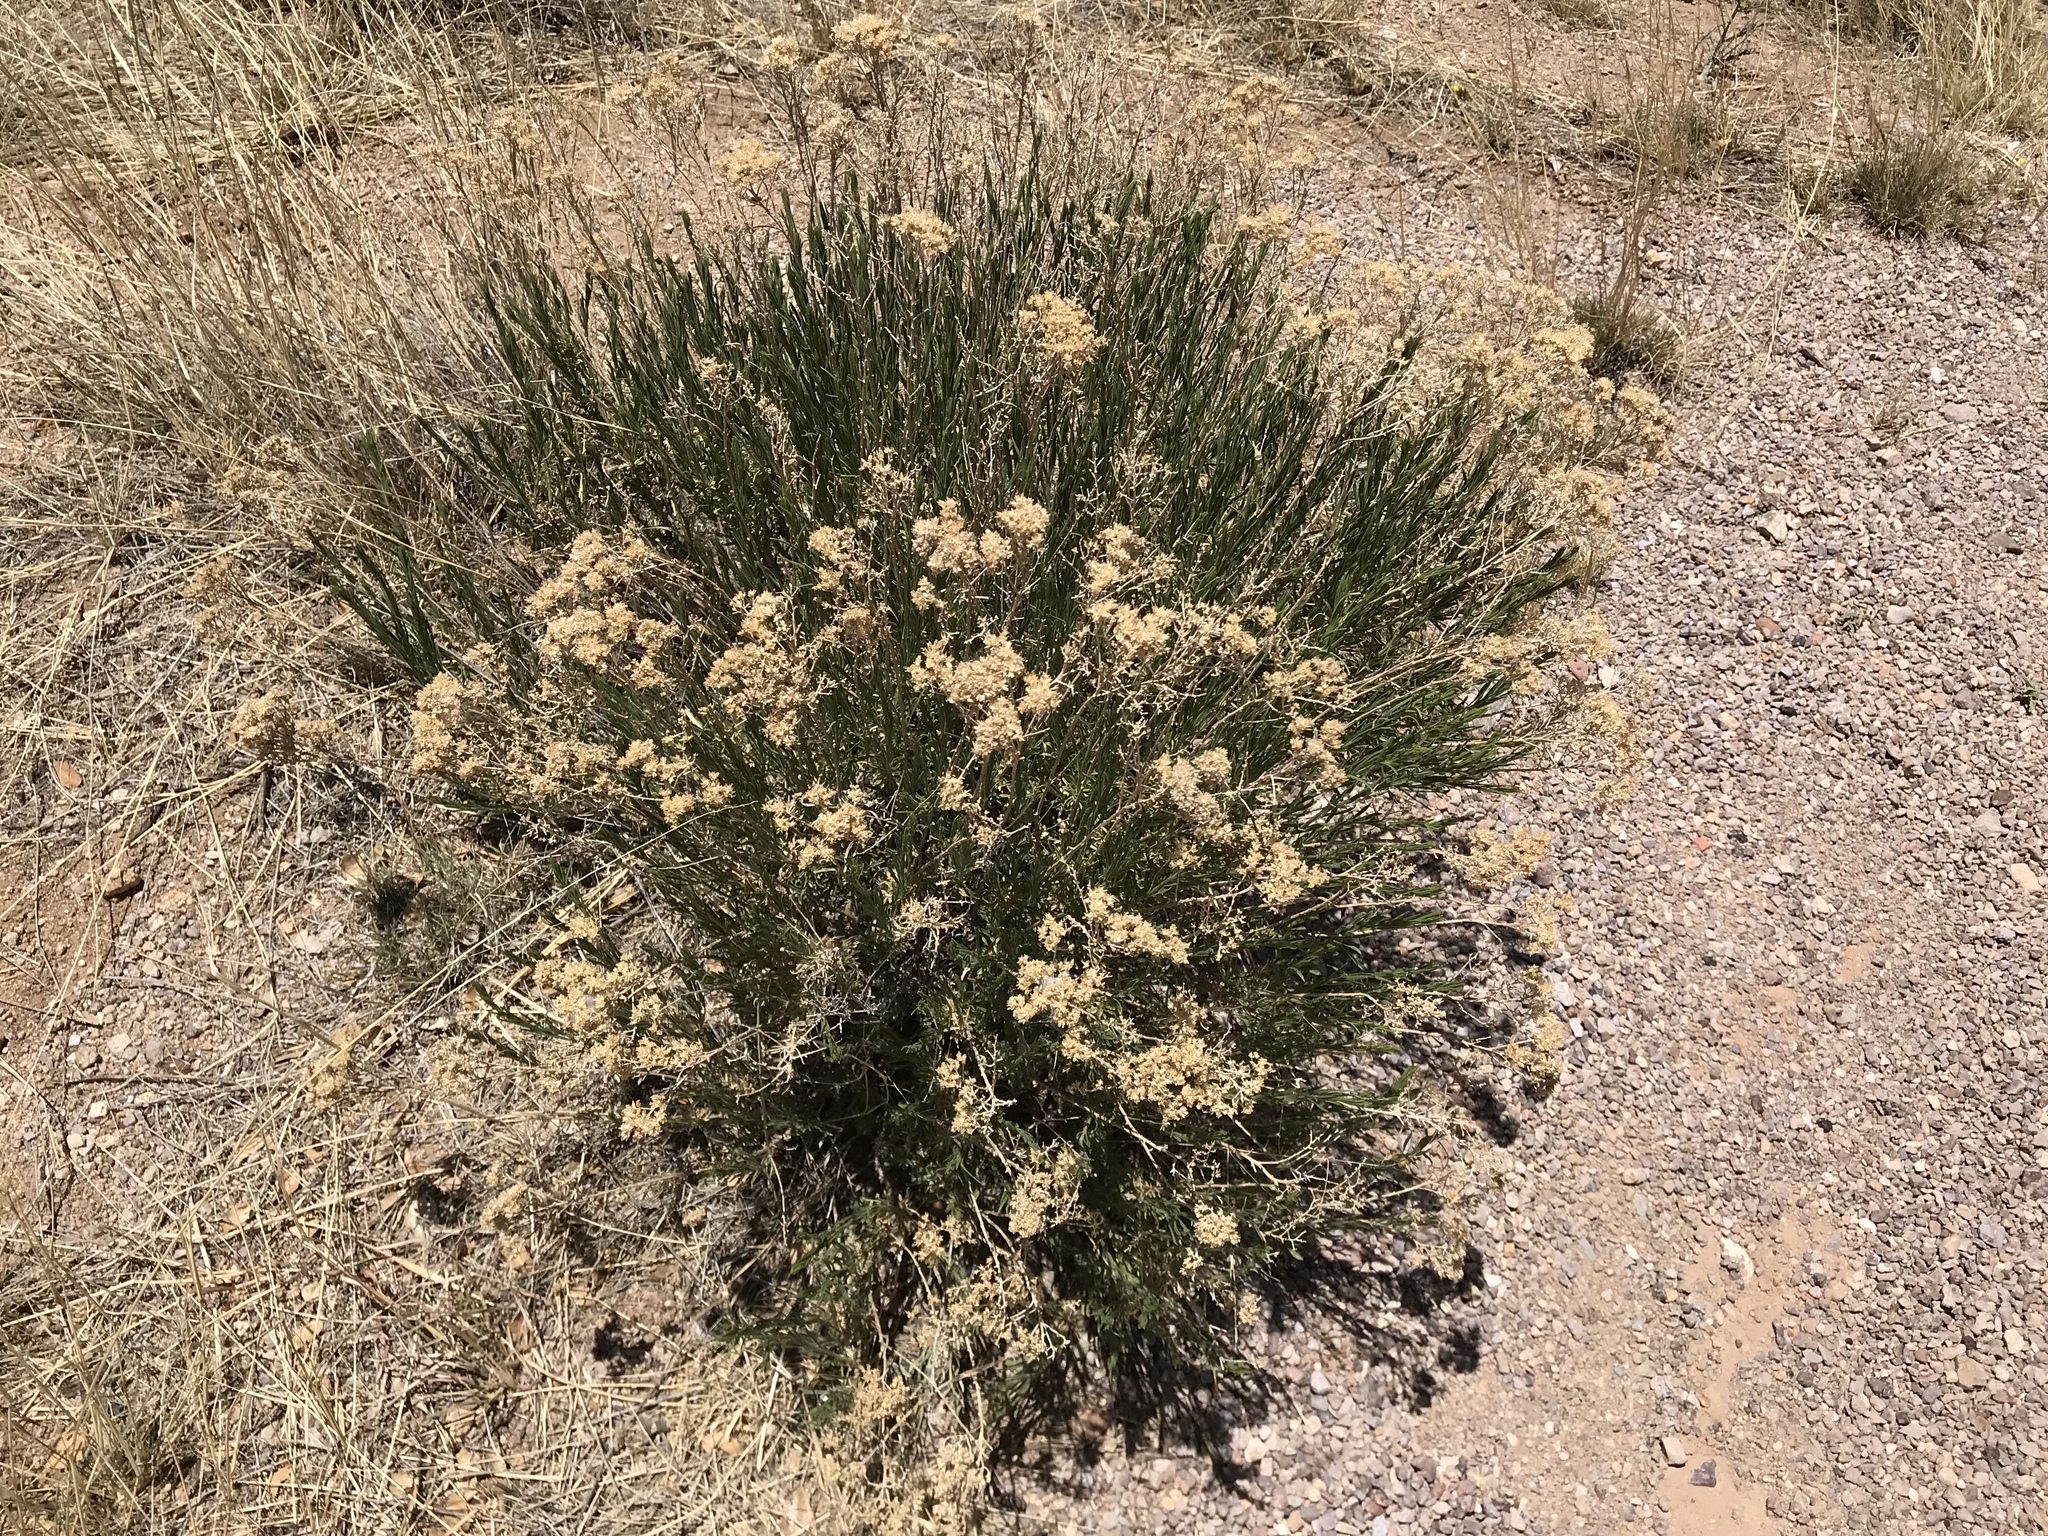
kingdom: Plantae
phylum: Tracheophyta
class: Magnoliopsida
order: Asterales
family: Asteraceae
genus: Gutierrezia
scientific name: Gutierrezia sarothrae
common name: Broom snakeweed
